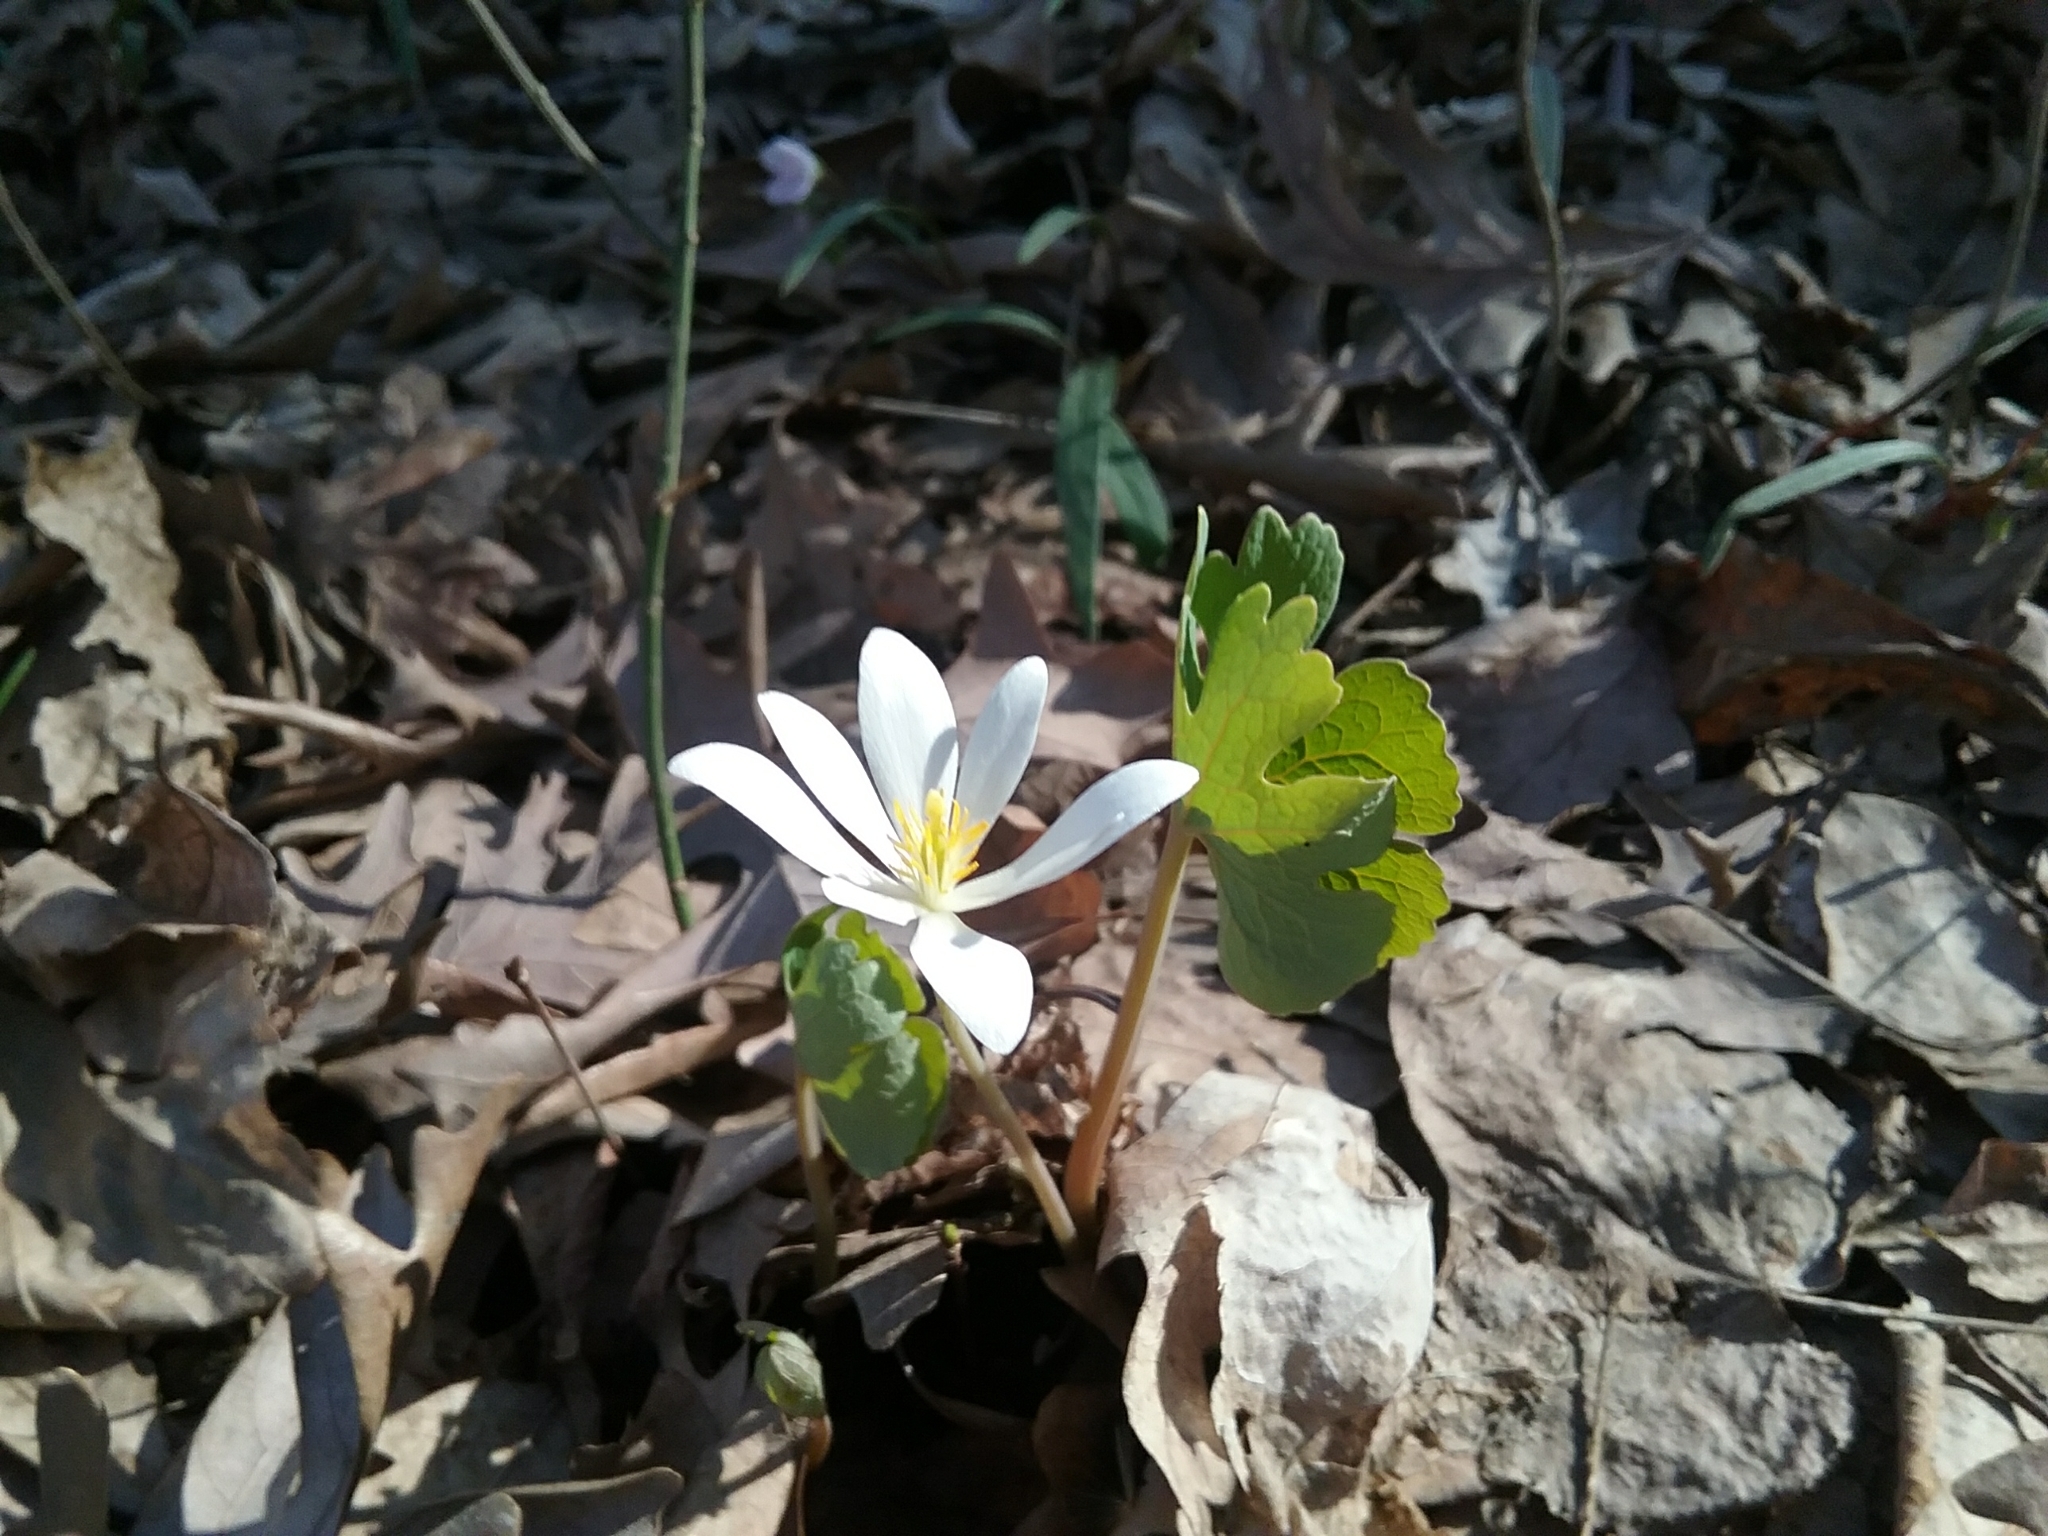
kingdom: Plantae
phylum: Tracheophyta
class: Magnoliopsida
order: Ranunculales
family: Papaveraceae
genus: Sanguinaria
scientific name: Sanguinaria canadensis
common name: Bloodroot
